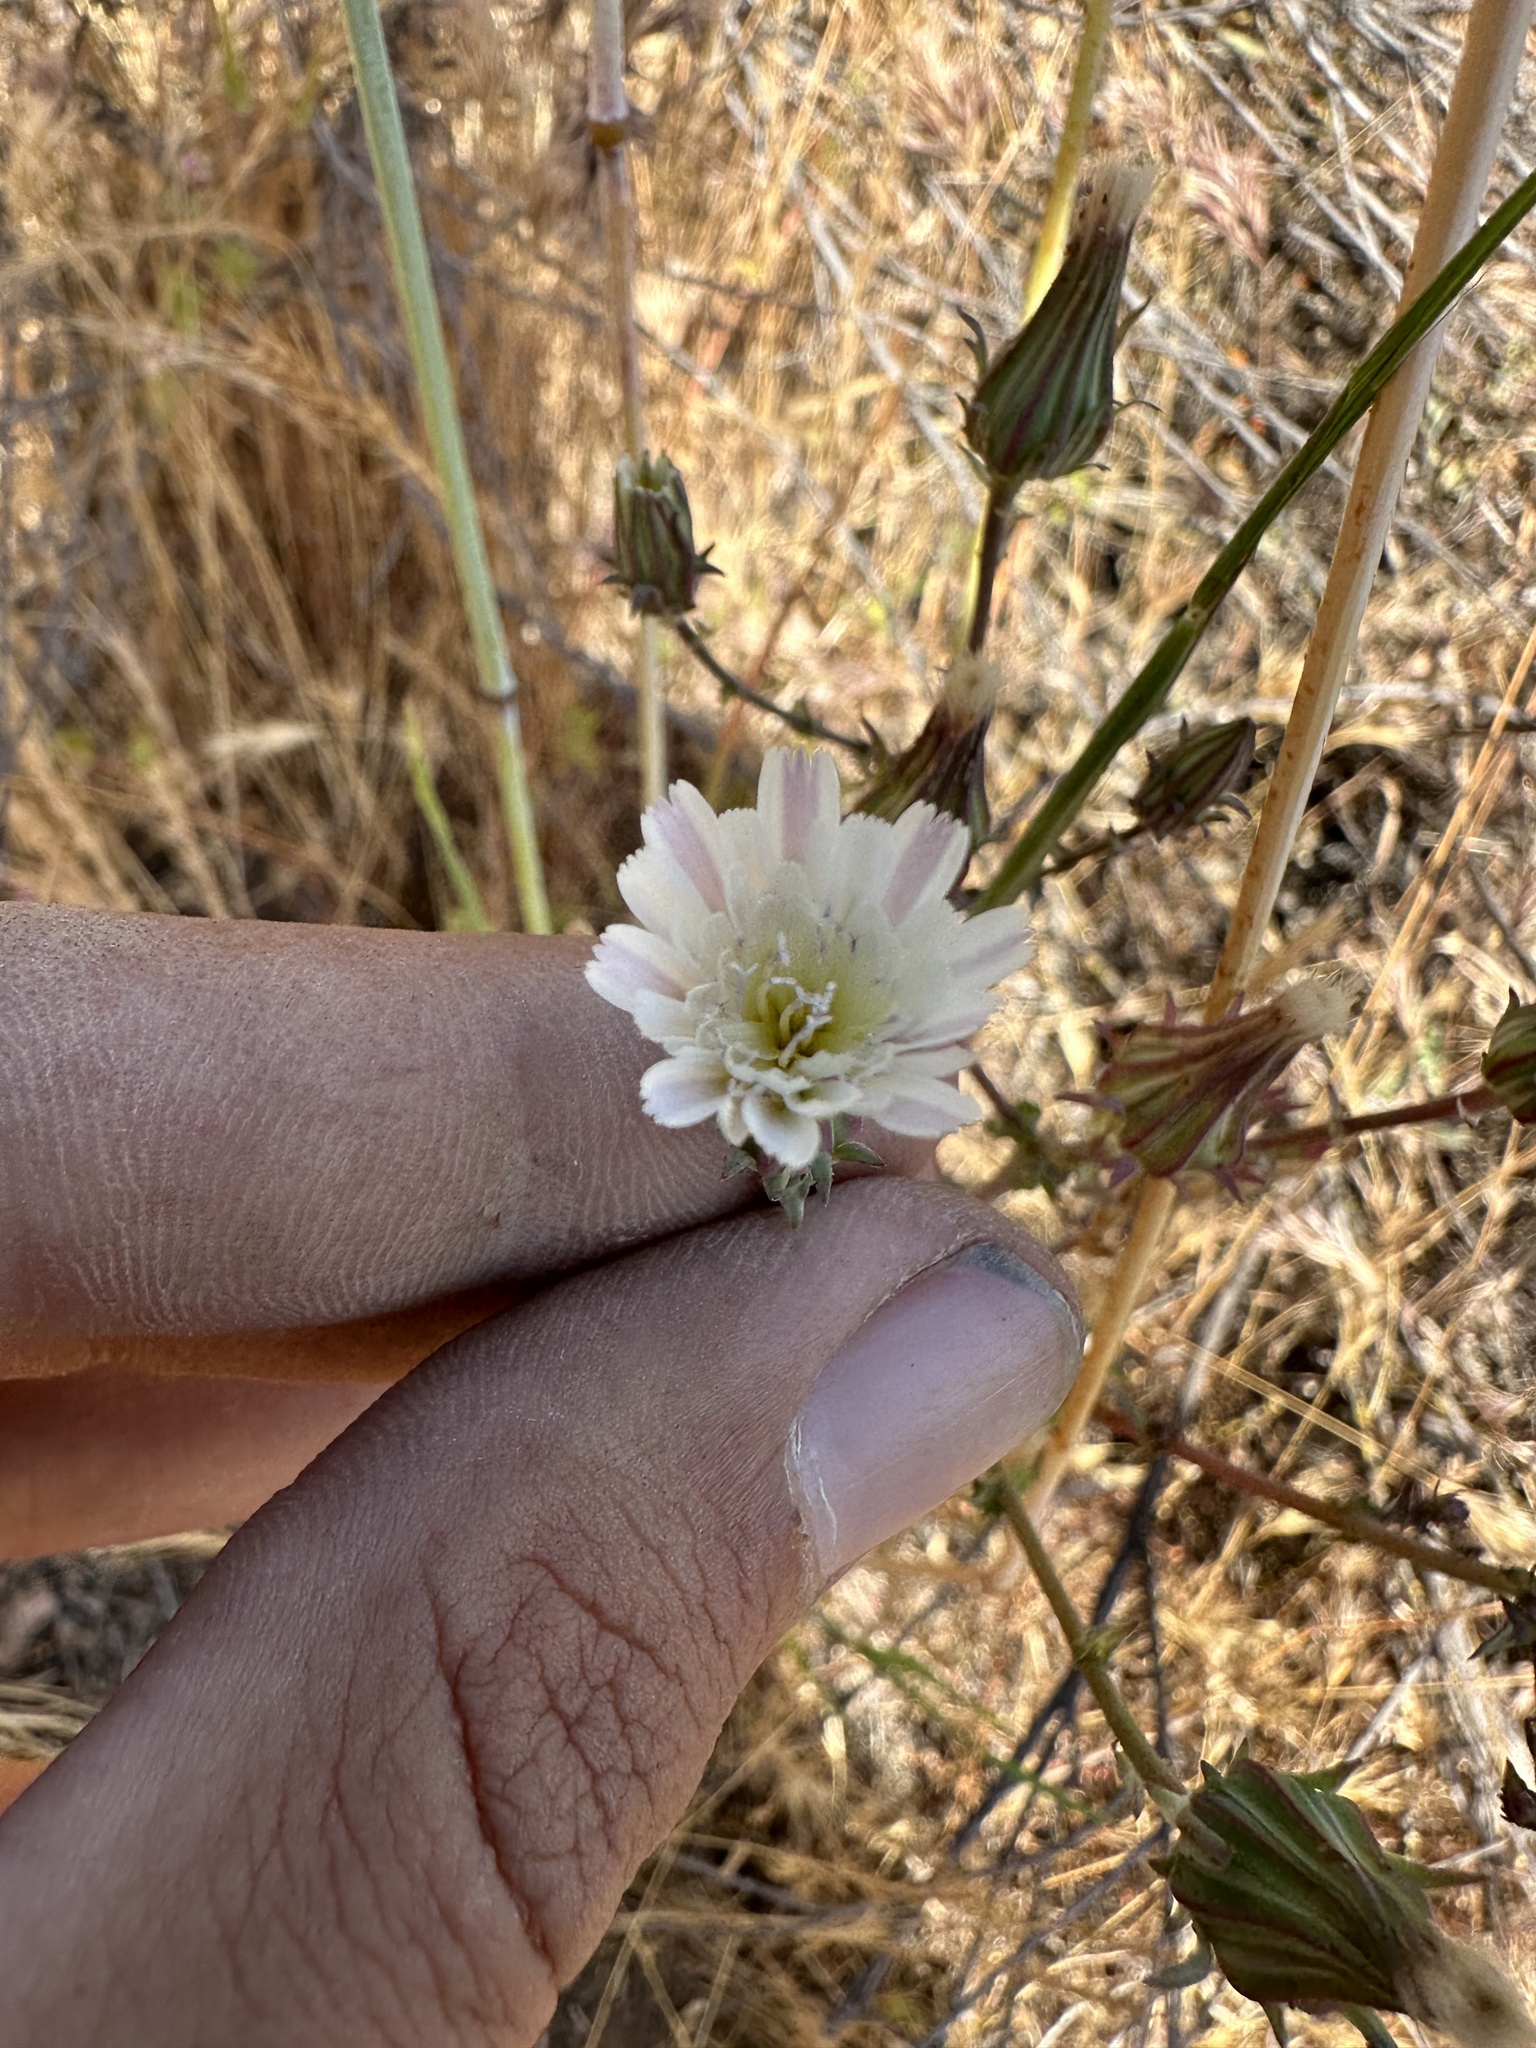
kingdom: Plantae
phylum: Tracheophyta
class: Magnoliopsida
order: Asterales
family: Asteraceae
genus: Rafinesquia
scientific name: Rafinesquia californica
